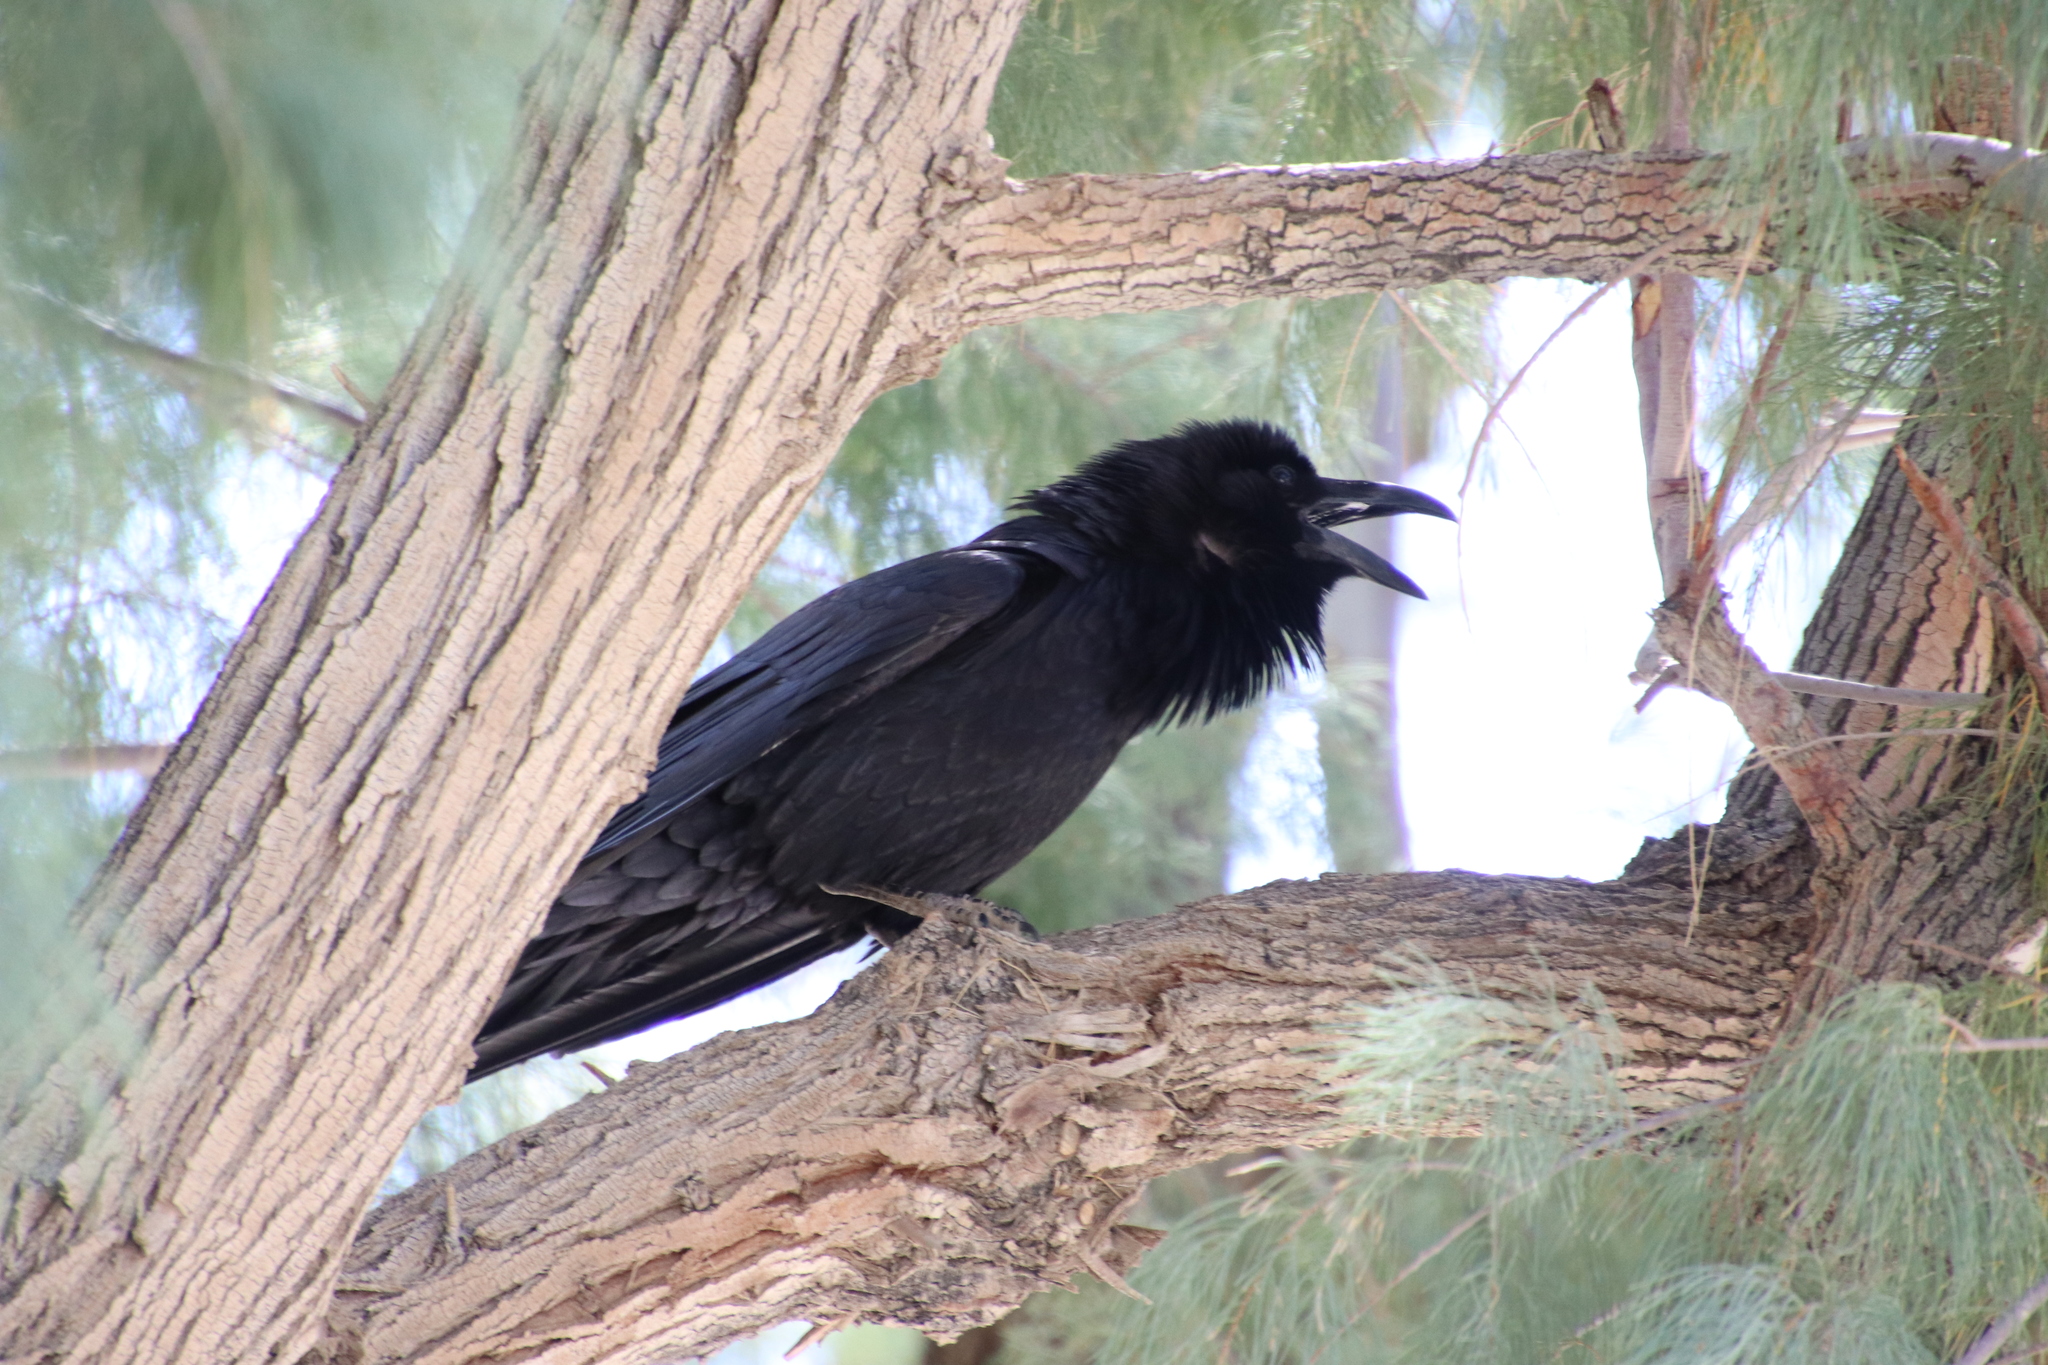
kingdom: Animalia
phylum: Chordata
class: Aves
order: Passeriformes
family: Corvidae
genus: Corvus
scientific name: Corvus corax
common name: Common raven
